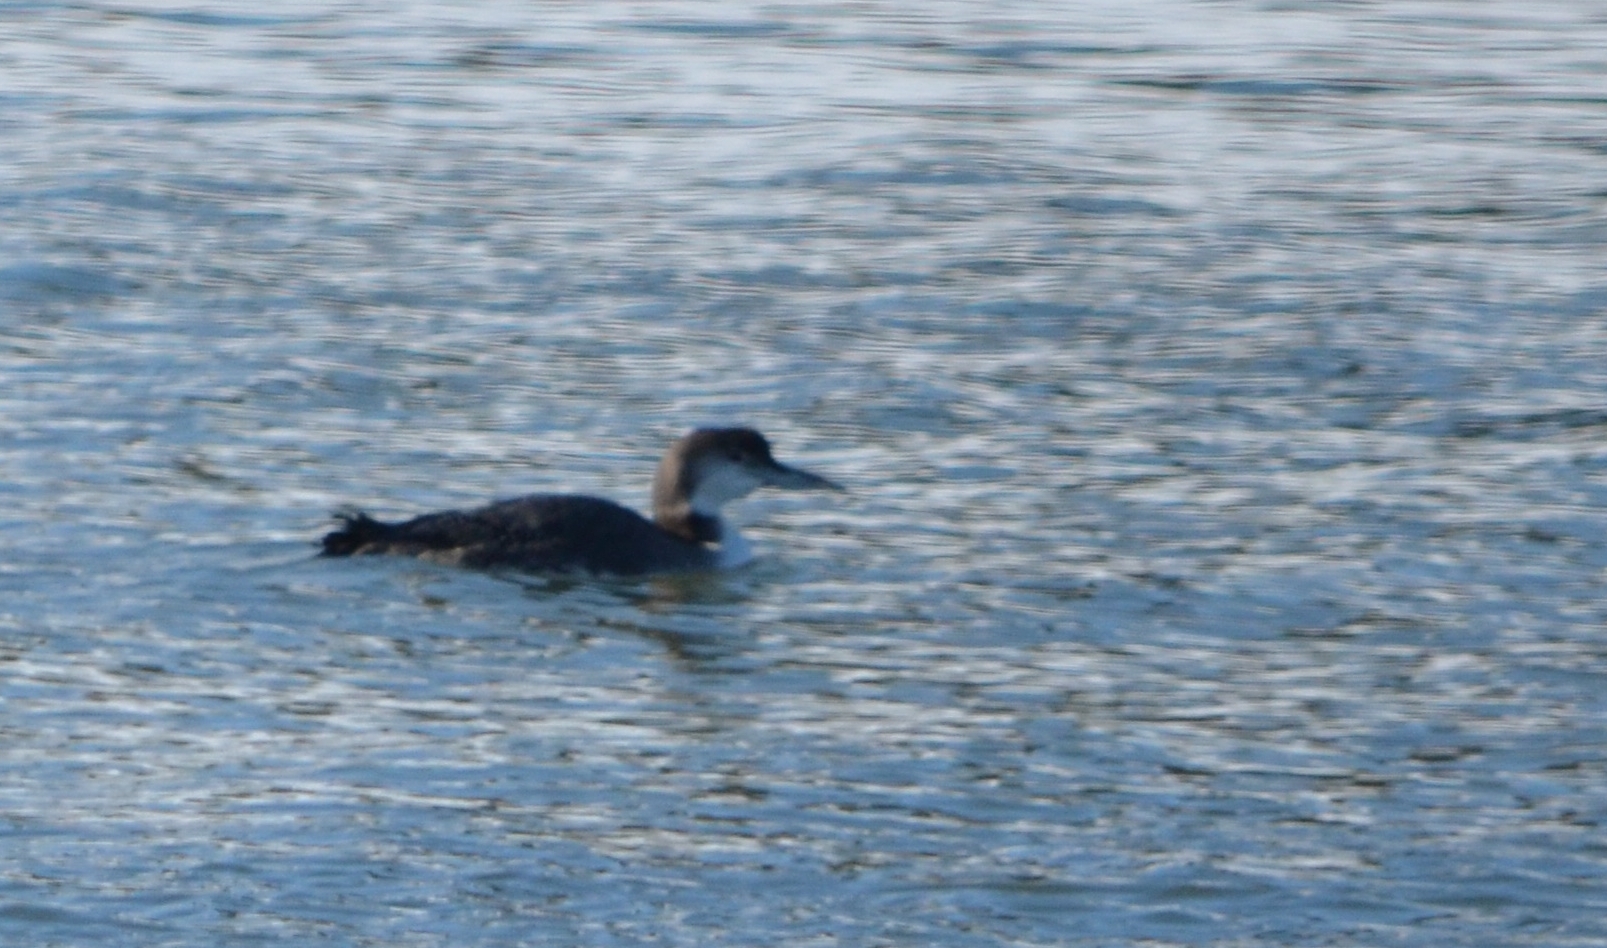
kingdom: Animalia
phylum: Chordata
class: Aves
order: Gaviiformes
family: Gaviidae
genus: Gavia
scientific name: Gavia immer
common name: Common loon
